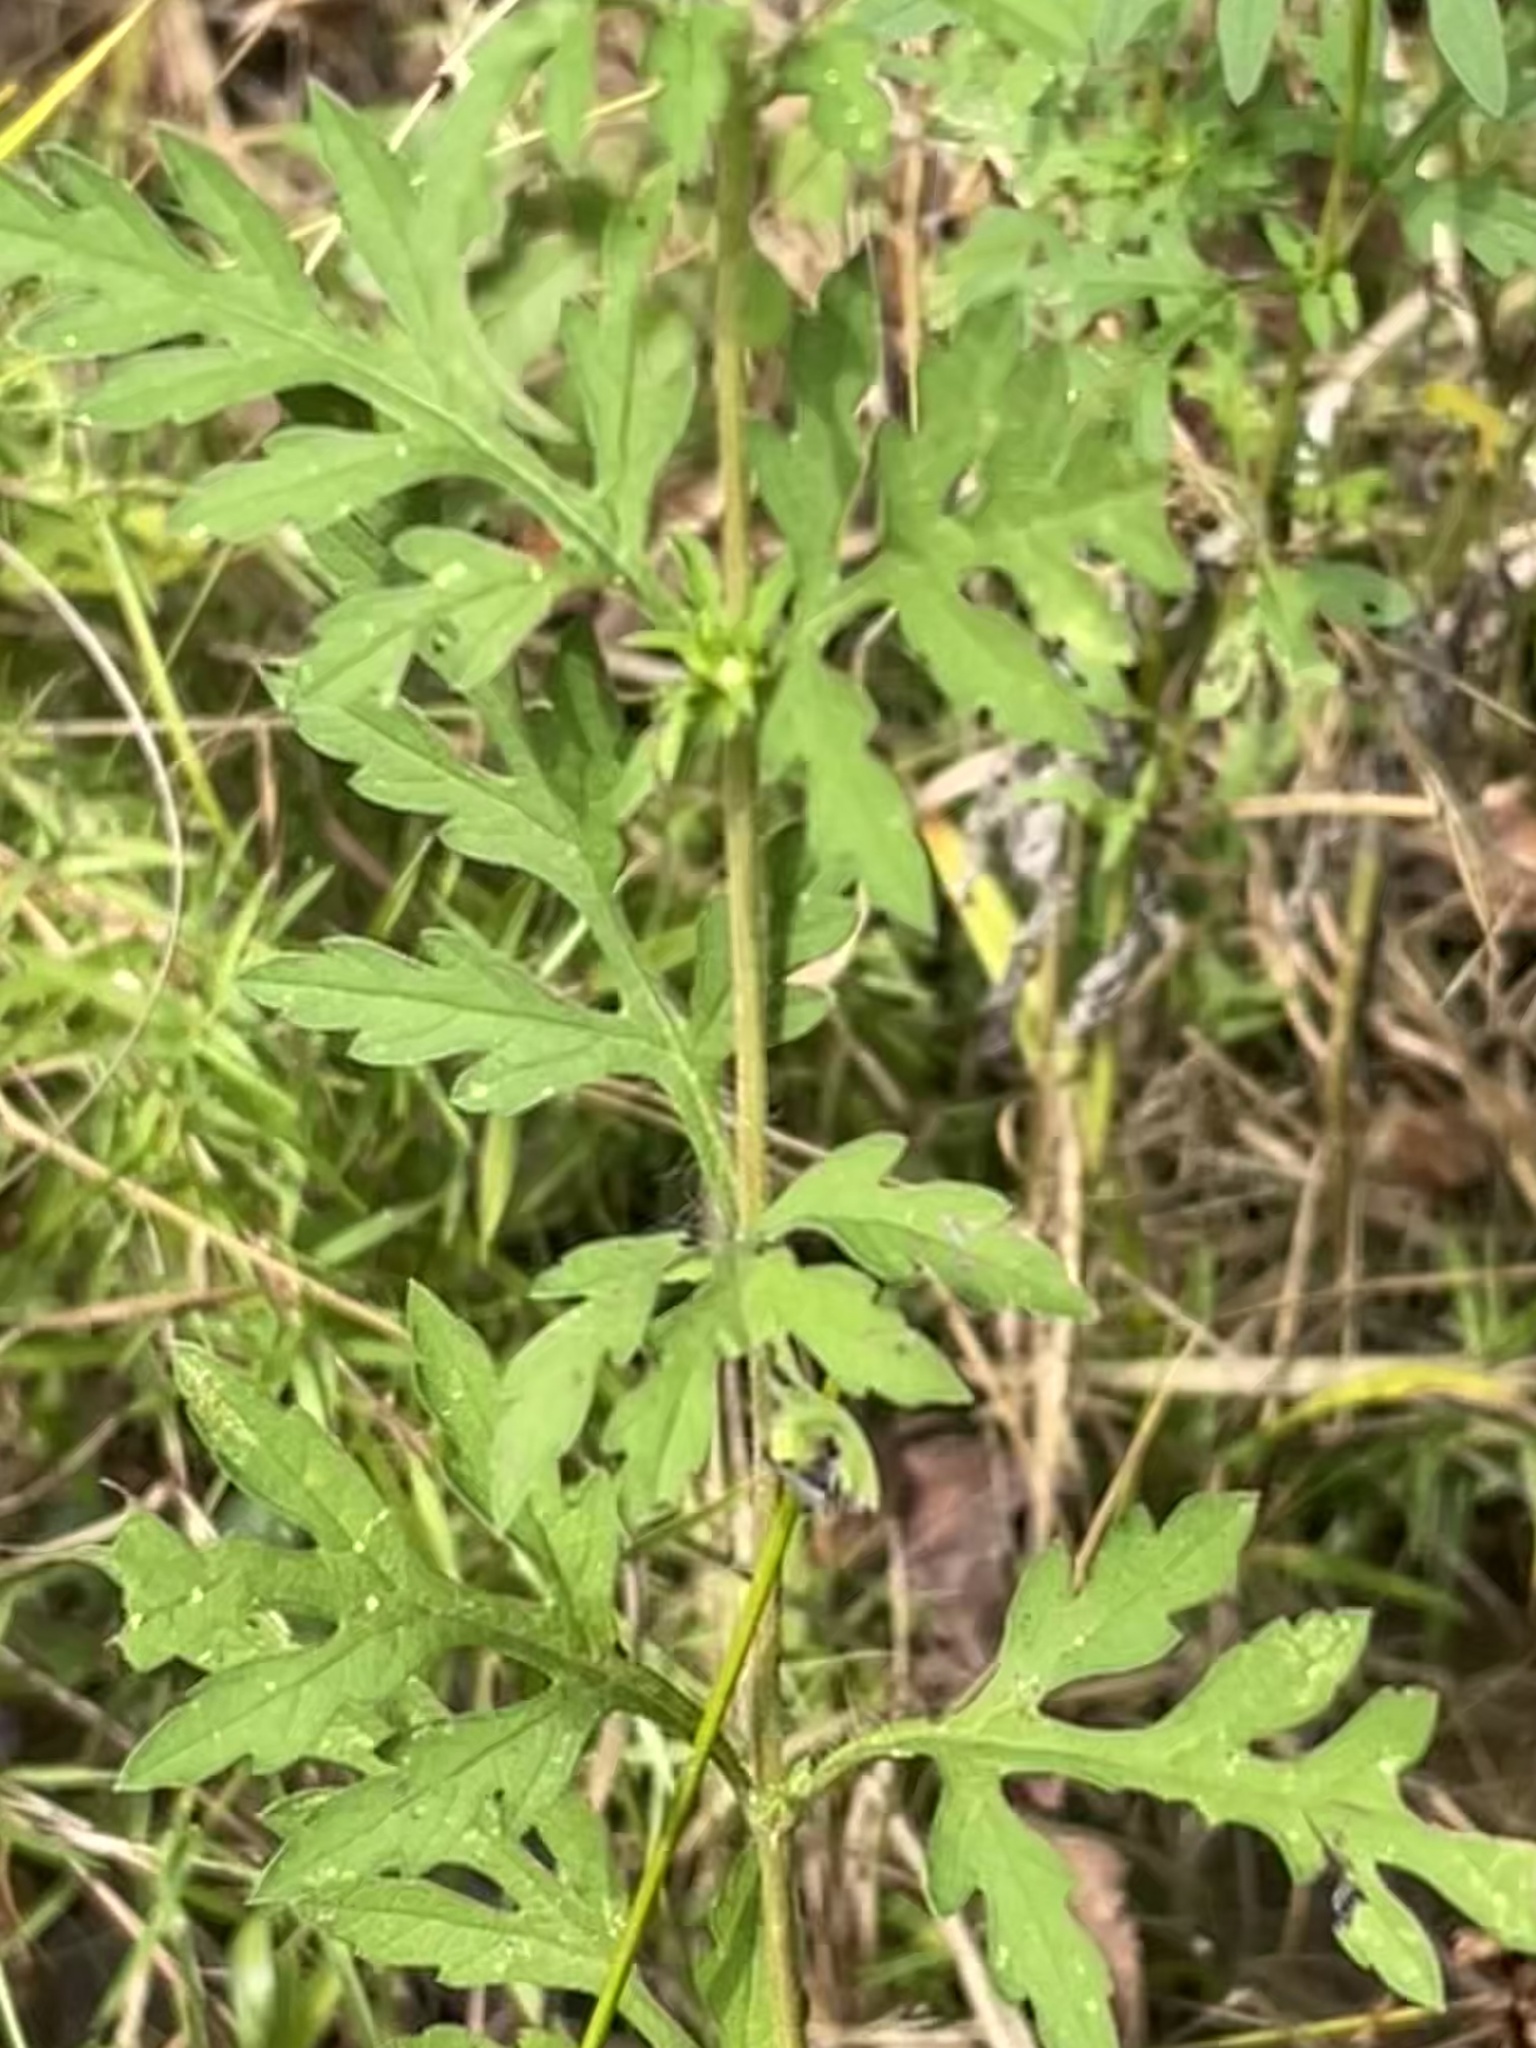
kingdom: Plantae
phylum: Tracheophyta
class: Magnoliopsida
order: Asterales
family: Asteraceae
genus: Ambrosia
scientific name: Ambrosia artemisiifolia
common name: Annual ragweed
